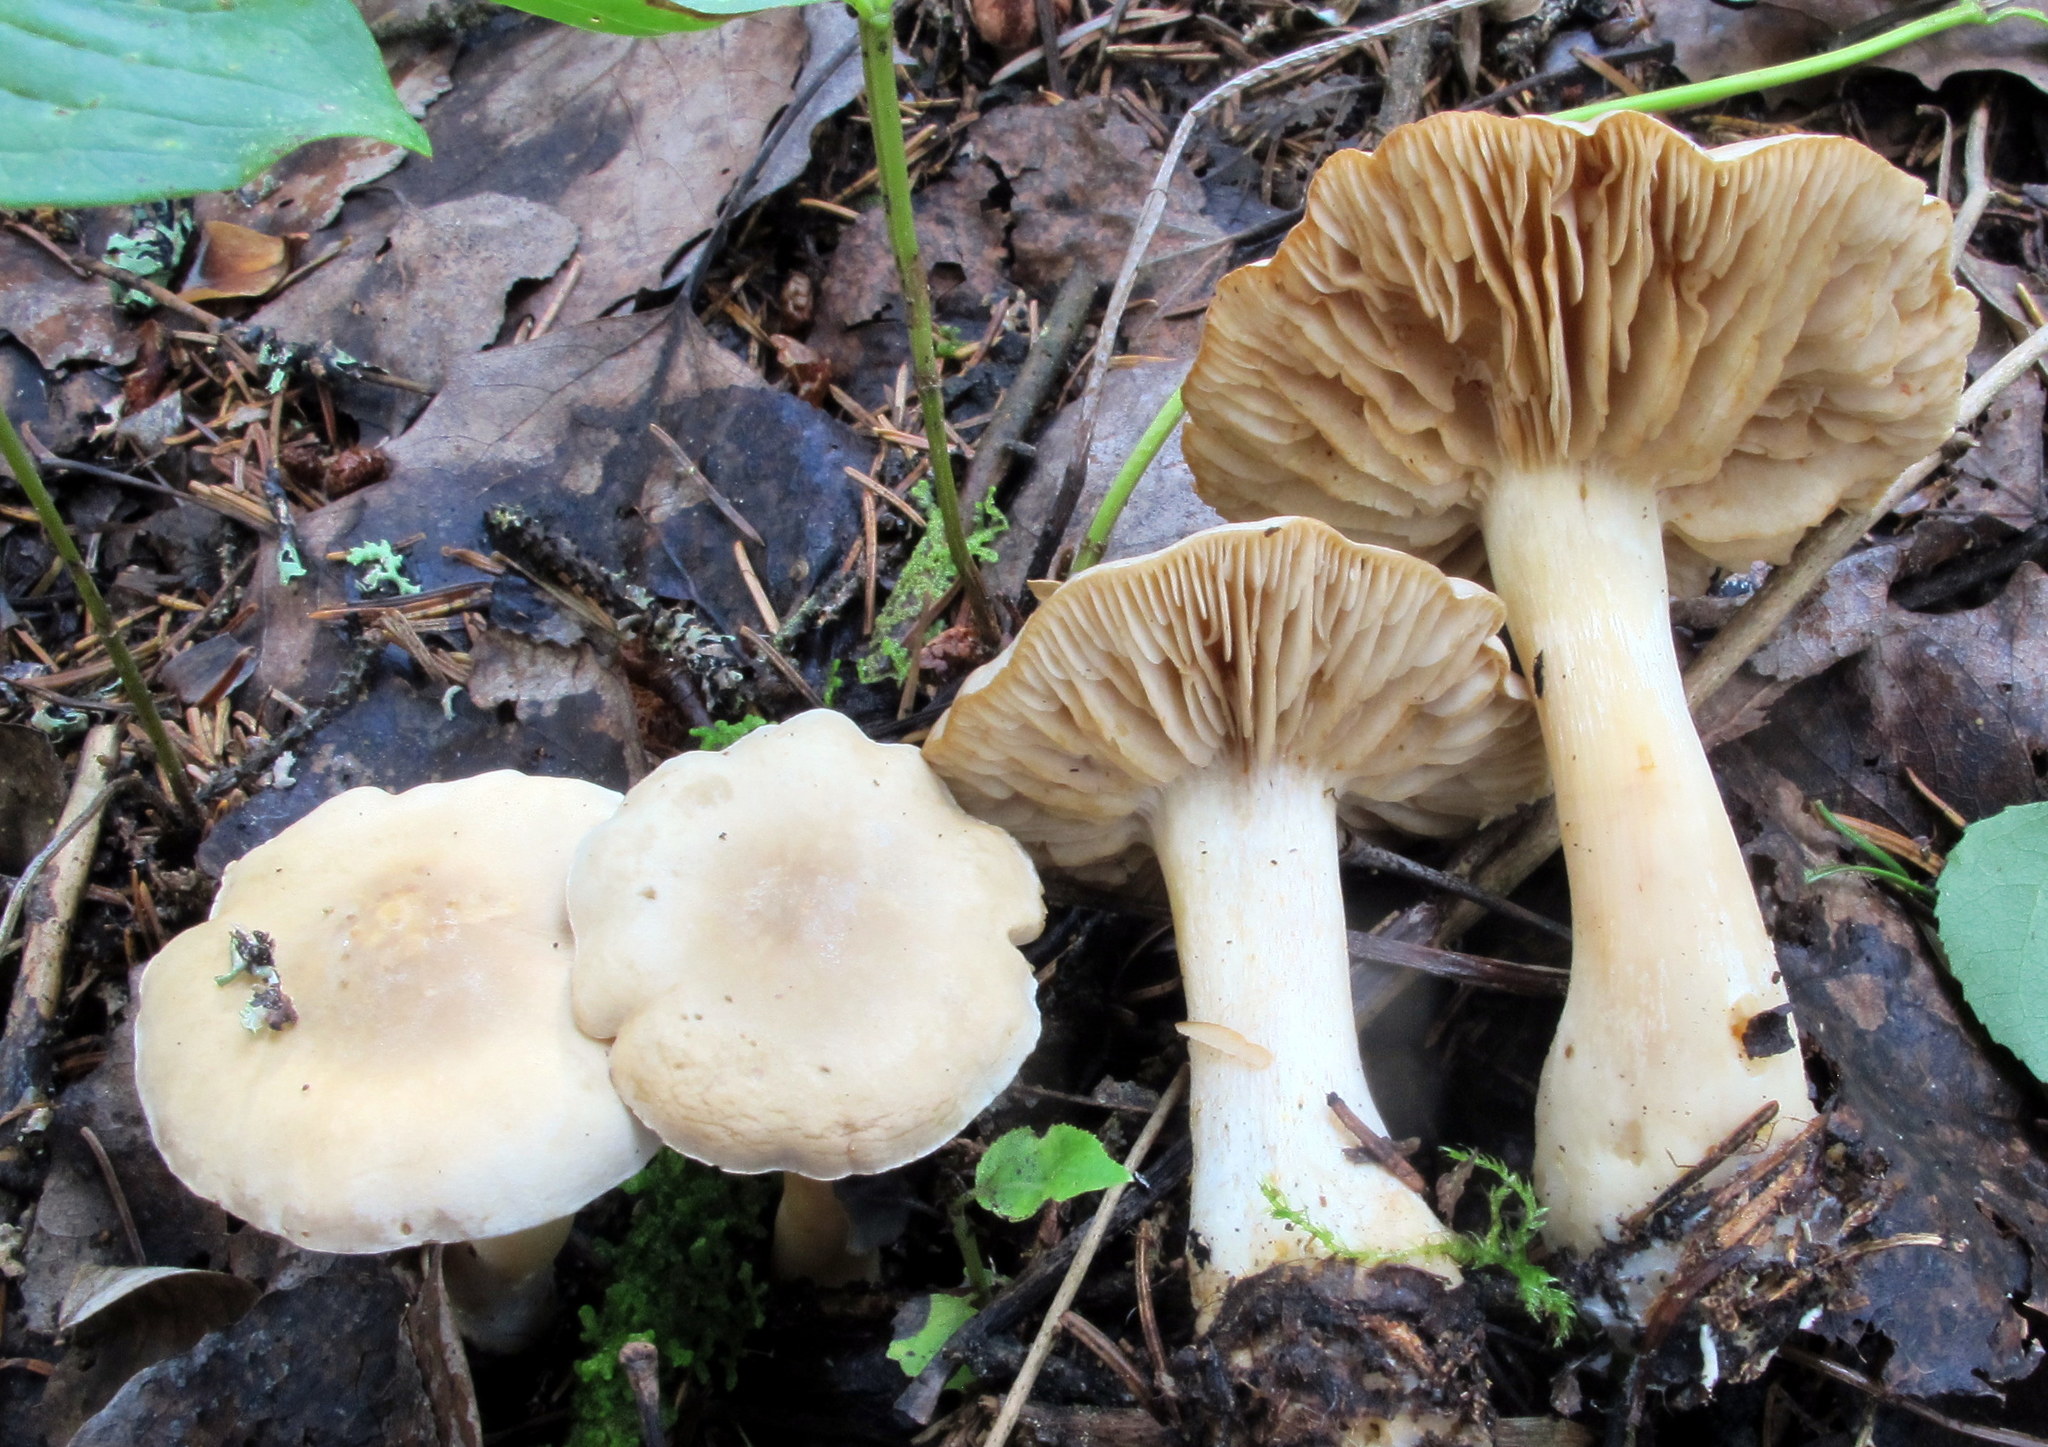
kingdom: Fungi
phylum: Basidiomycota
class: Agaricomycetes
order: Agaricales
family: Tricholomataceae
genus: Tricholoma
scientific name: Tricholoma inamoenum
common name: Gassy knight
